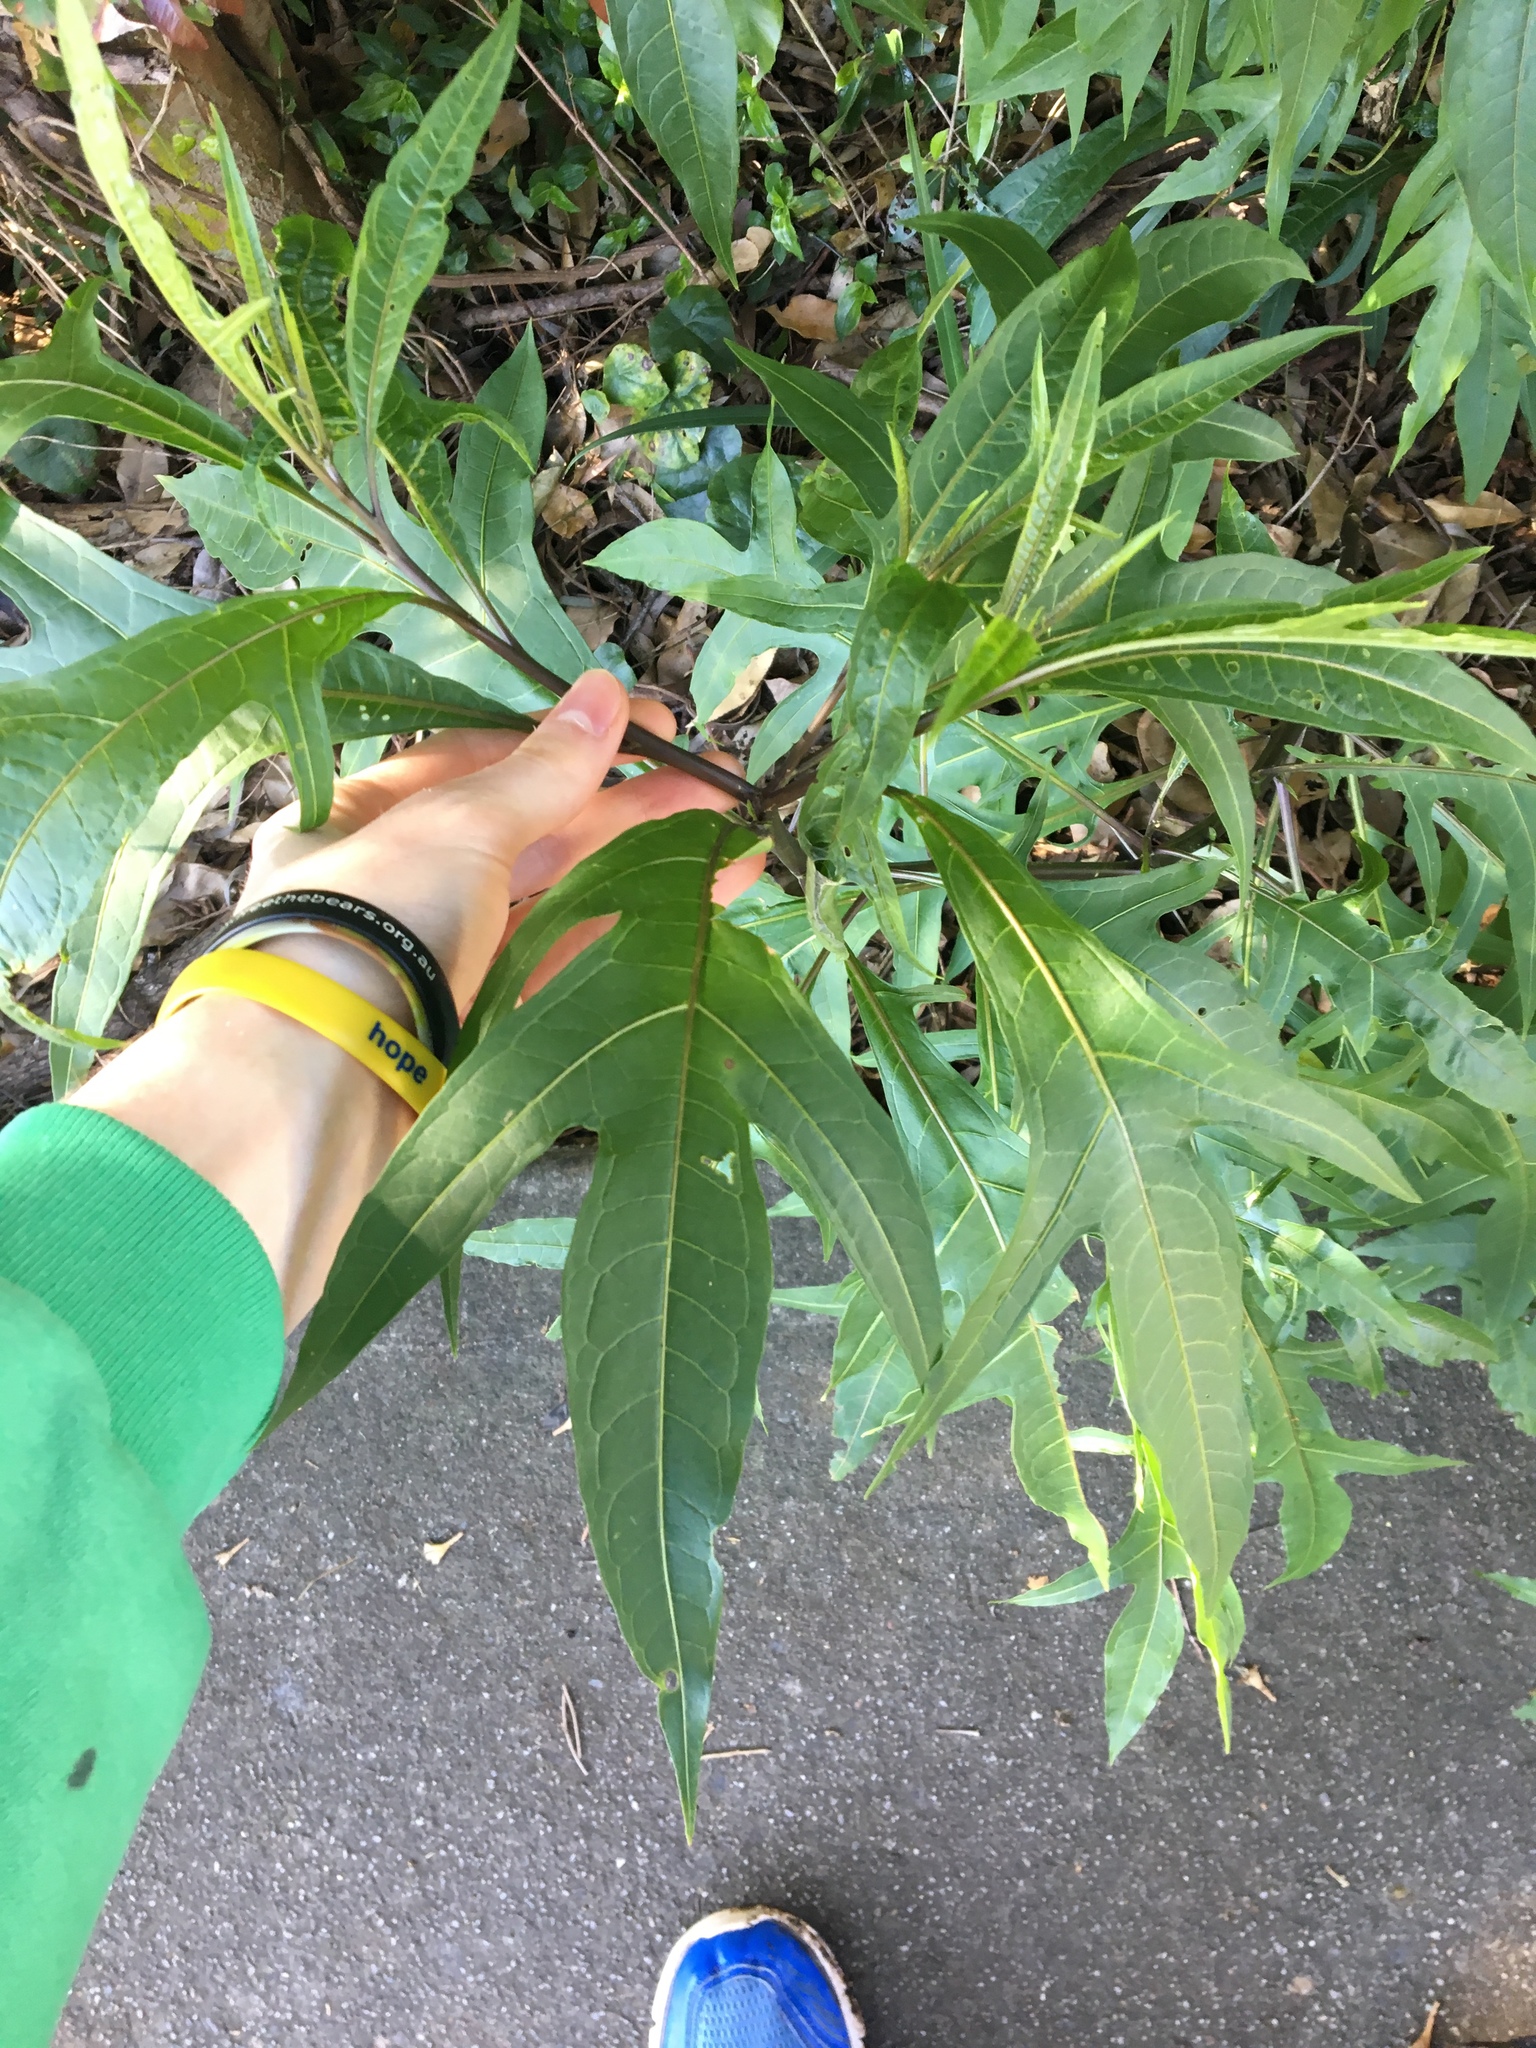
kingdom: Plantae
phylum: Tracheophyta
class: Magnoliopsida
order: Solanales
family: Solanaceae
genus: Solanum
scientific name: Solanum aviculare
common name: New zealand nightshade
